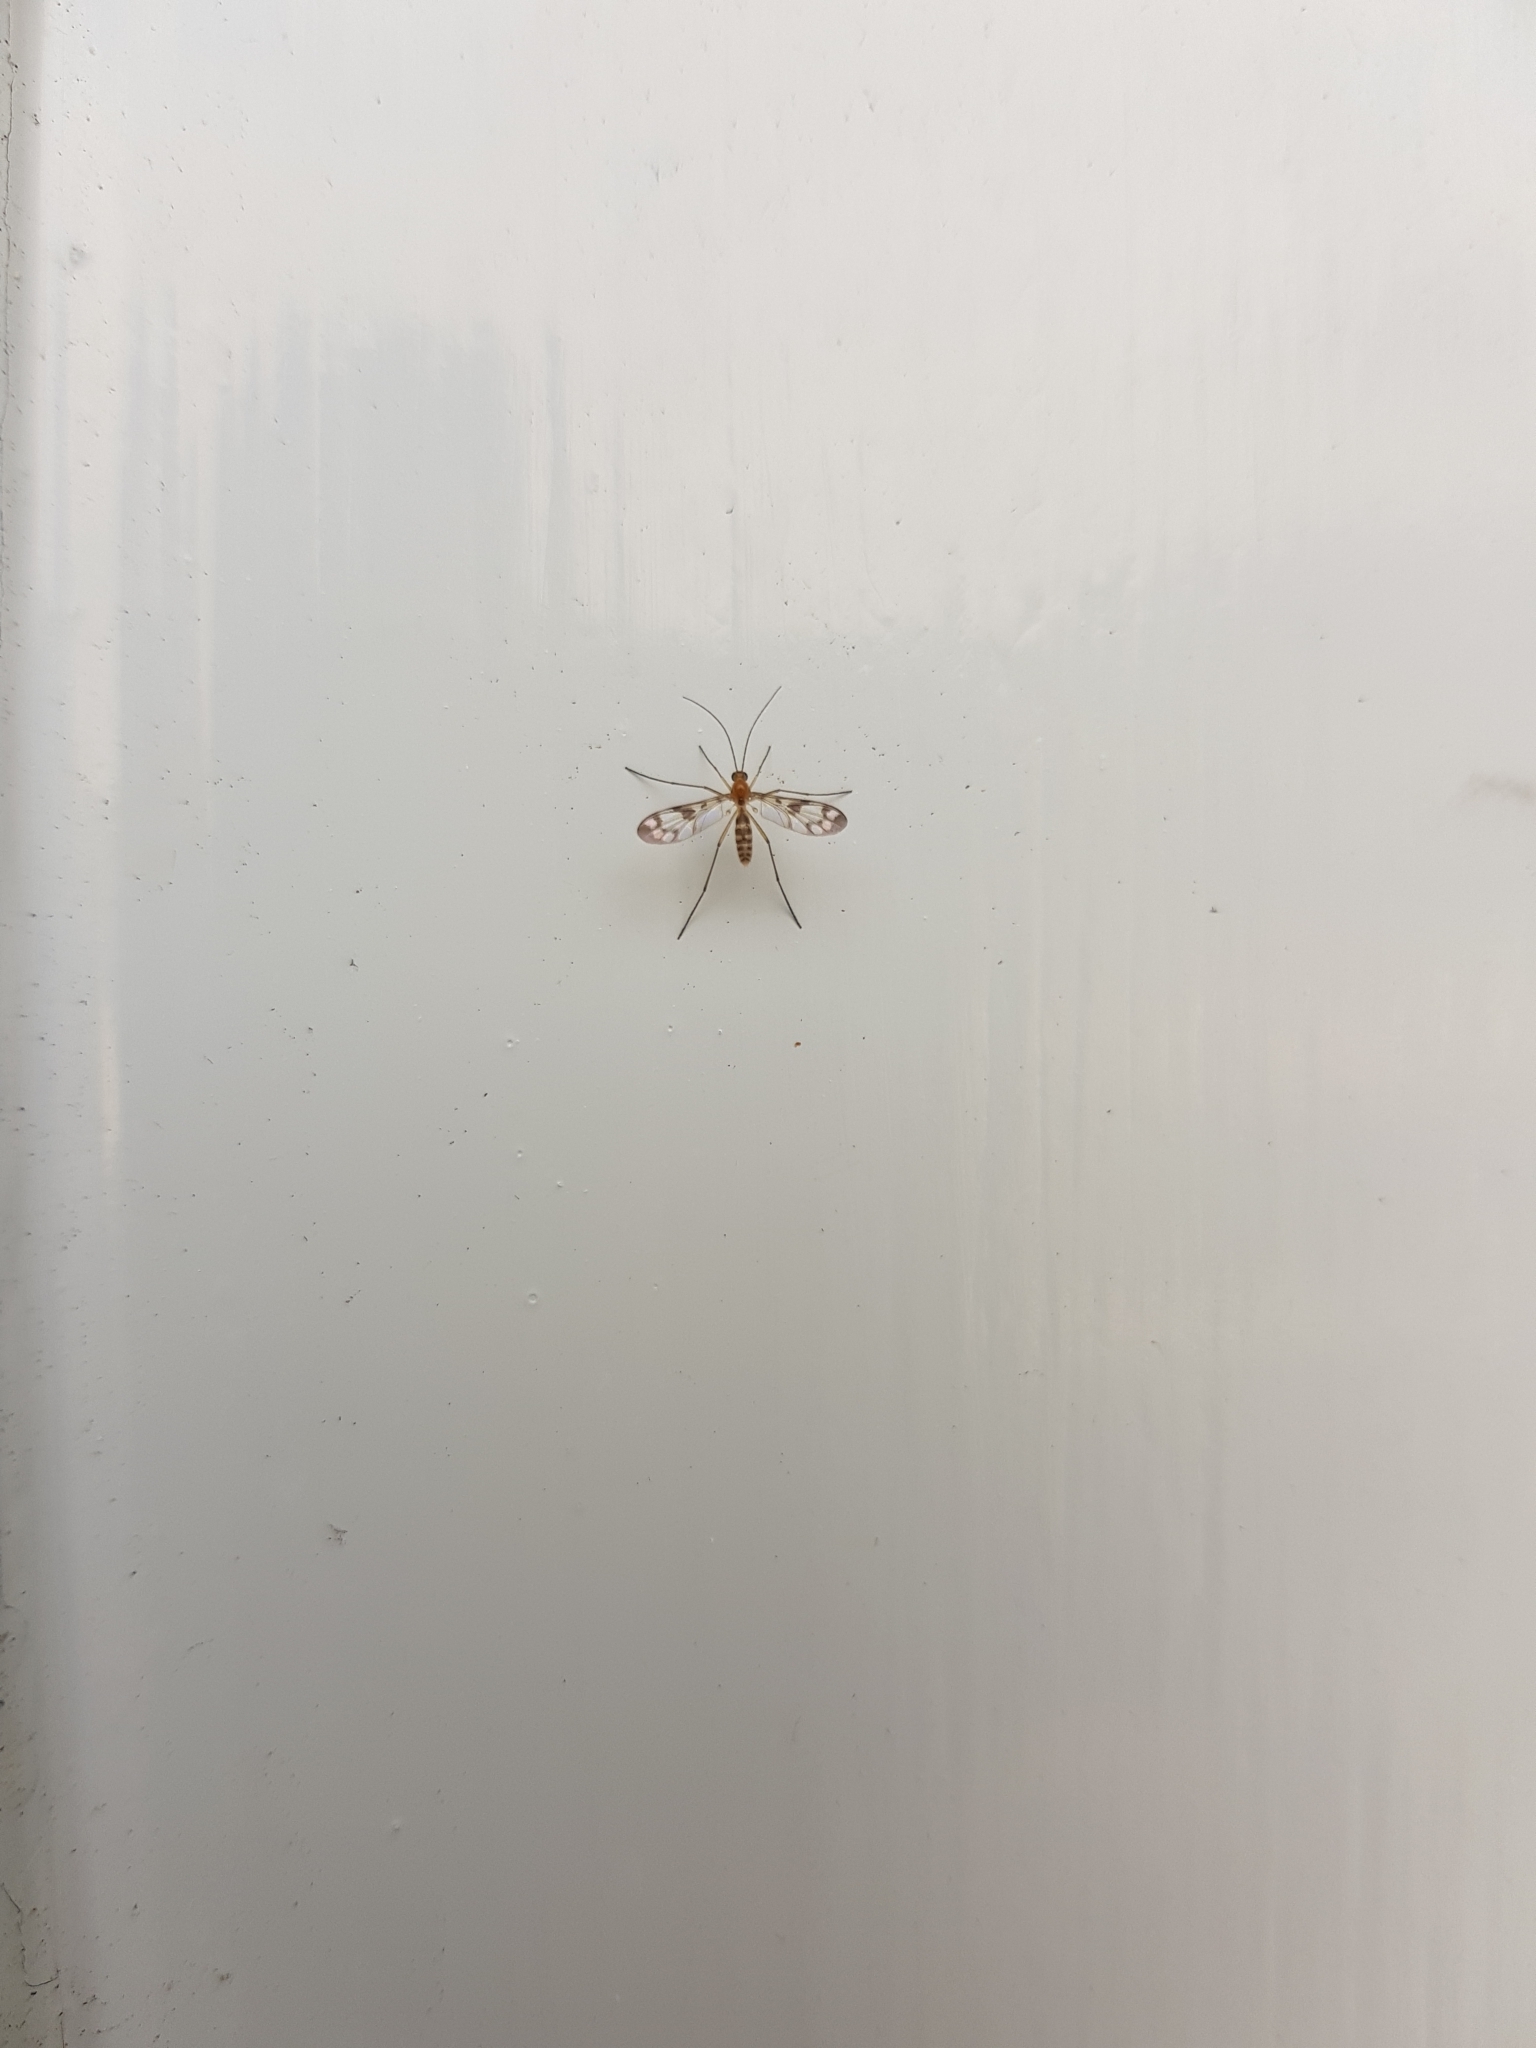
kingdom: Animalia
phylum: Arthropoda
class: Insecta
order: Diptera
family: Keroplatidae
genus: Chiasmoneura
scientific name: Chiasmoneura fenestrata
